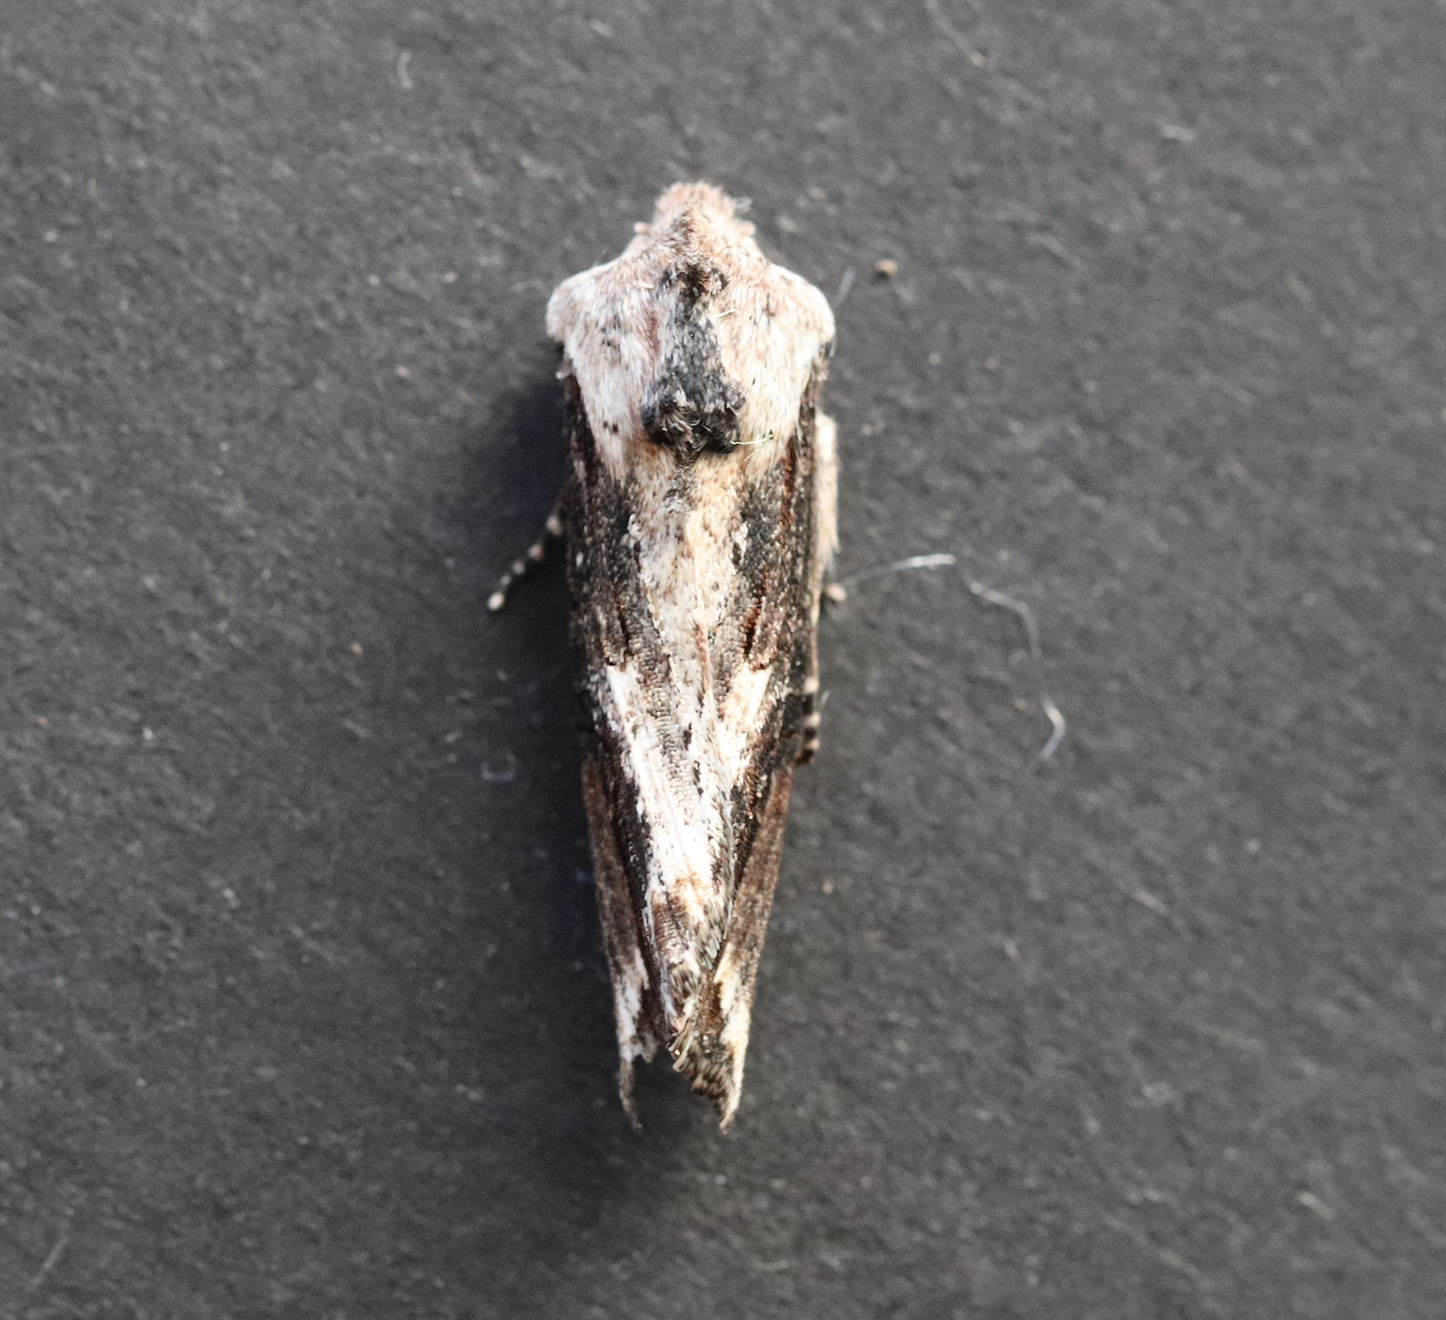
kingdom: Animalia
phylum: Arthropoda
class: Insecta
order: Lepidoptera
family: Noctuidae
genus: Egira
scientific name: Egira conspicillaris
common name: Silver cloud
